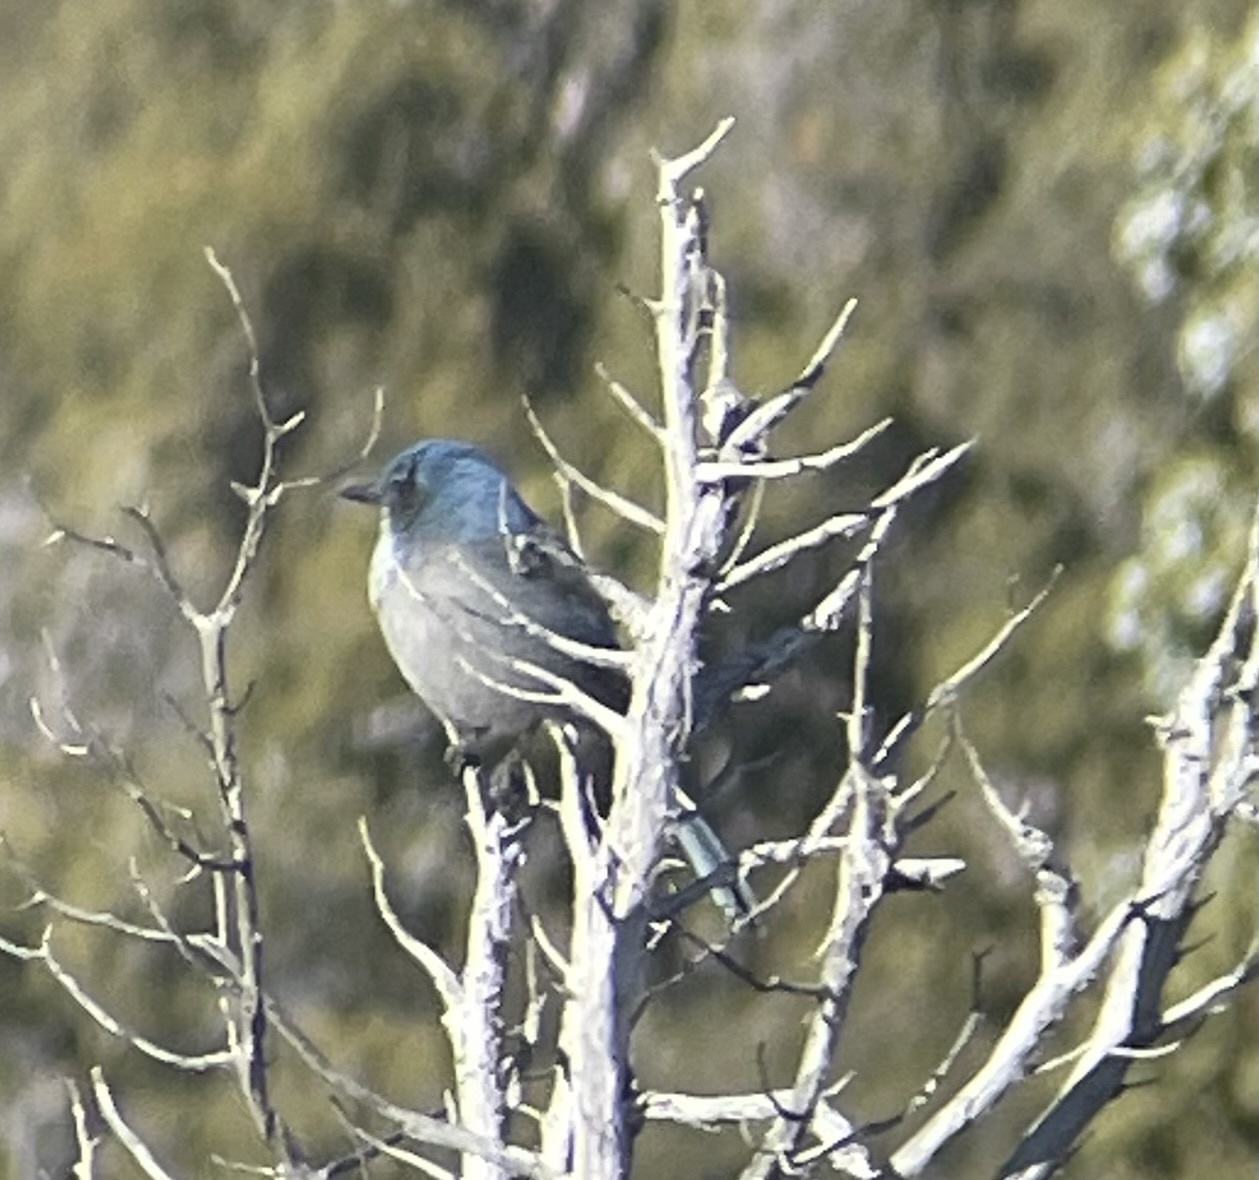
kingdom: Animalia
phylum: Chordata
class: Aves
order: Passeriformes
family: Corvidae
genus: Aphelocoma
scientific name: Aphelocoma woodhouseii
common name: Woodhouse's scrub-jay
